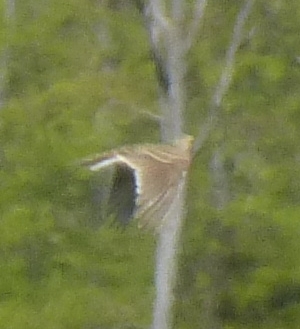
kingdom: Animalia
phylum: Chordata
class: Aves
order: Passeriformes
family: Alaudidae
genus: Alauda
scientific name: Alauda arvensis
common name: Eurasian skylark
